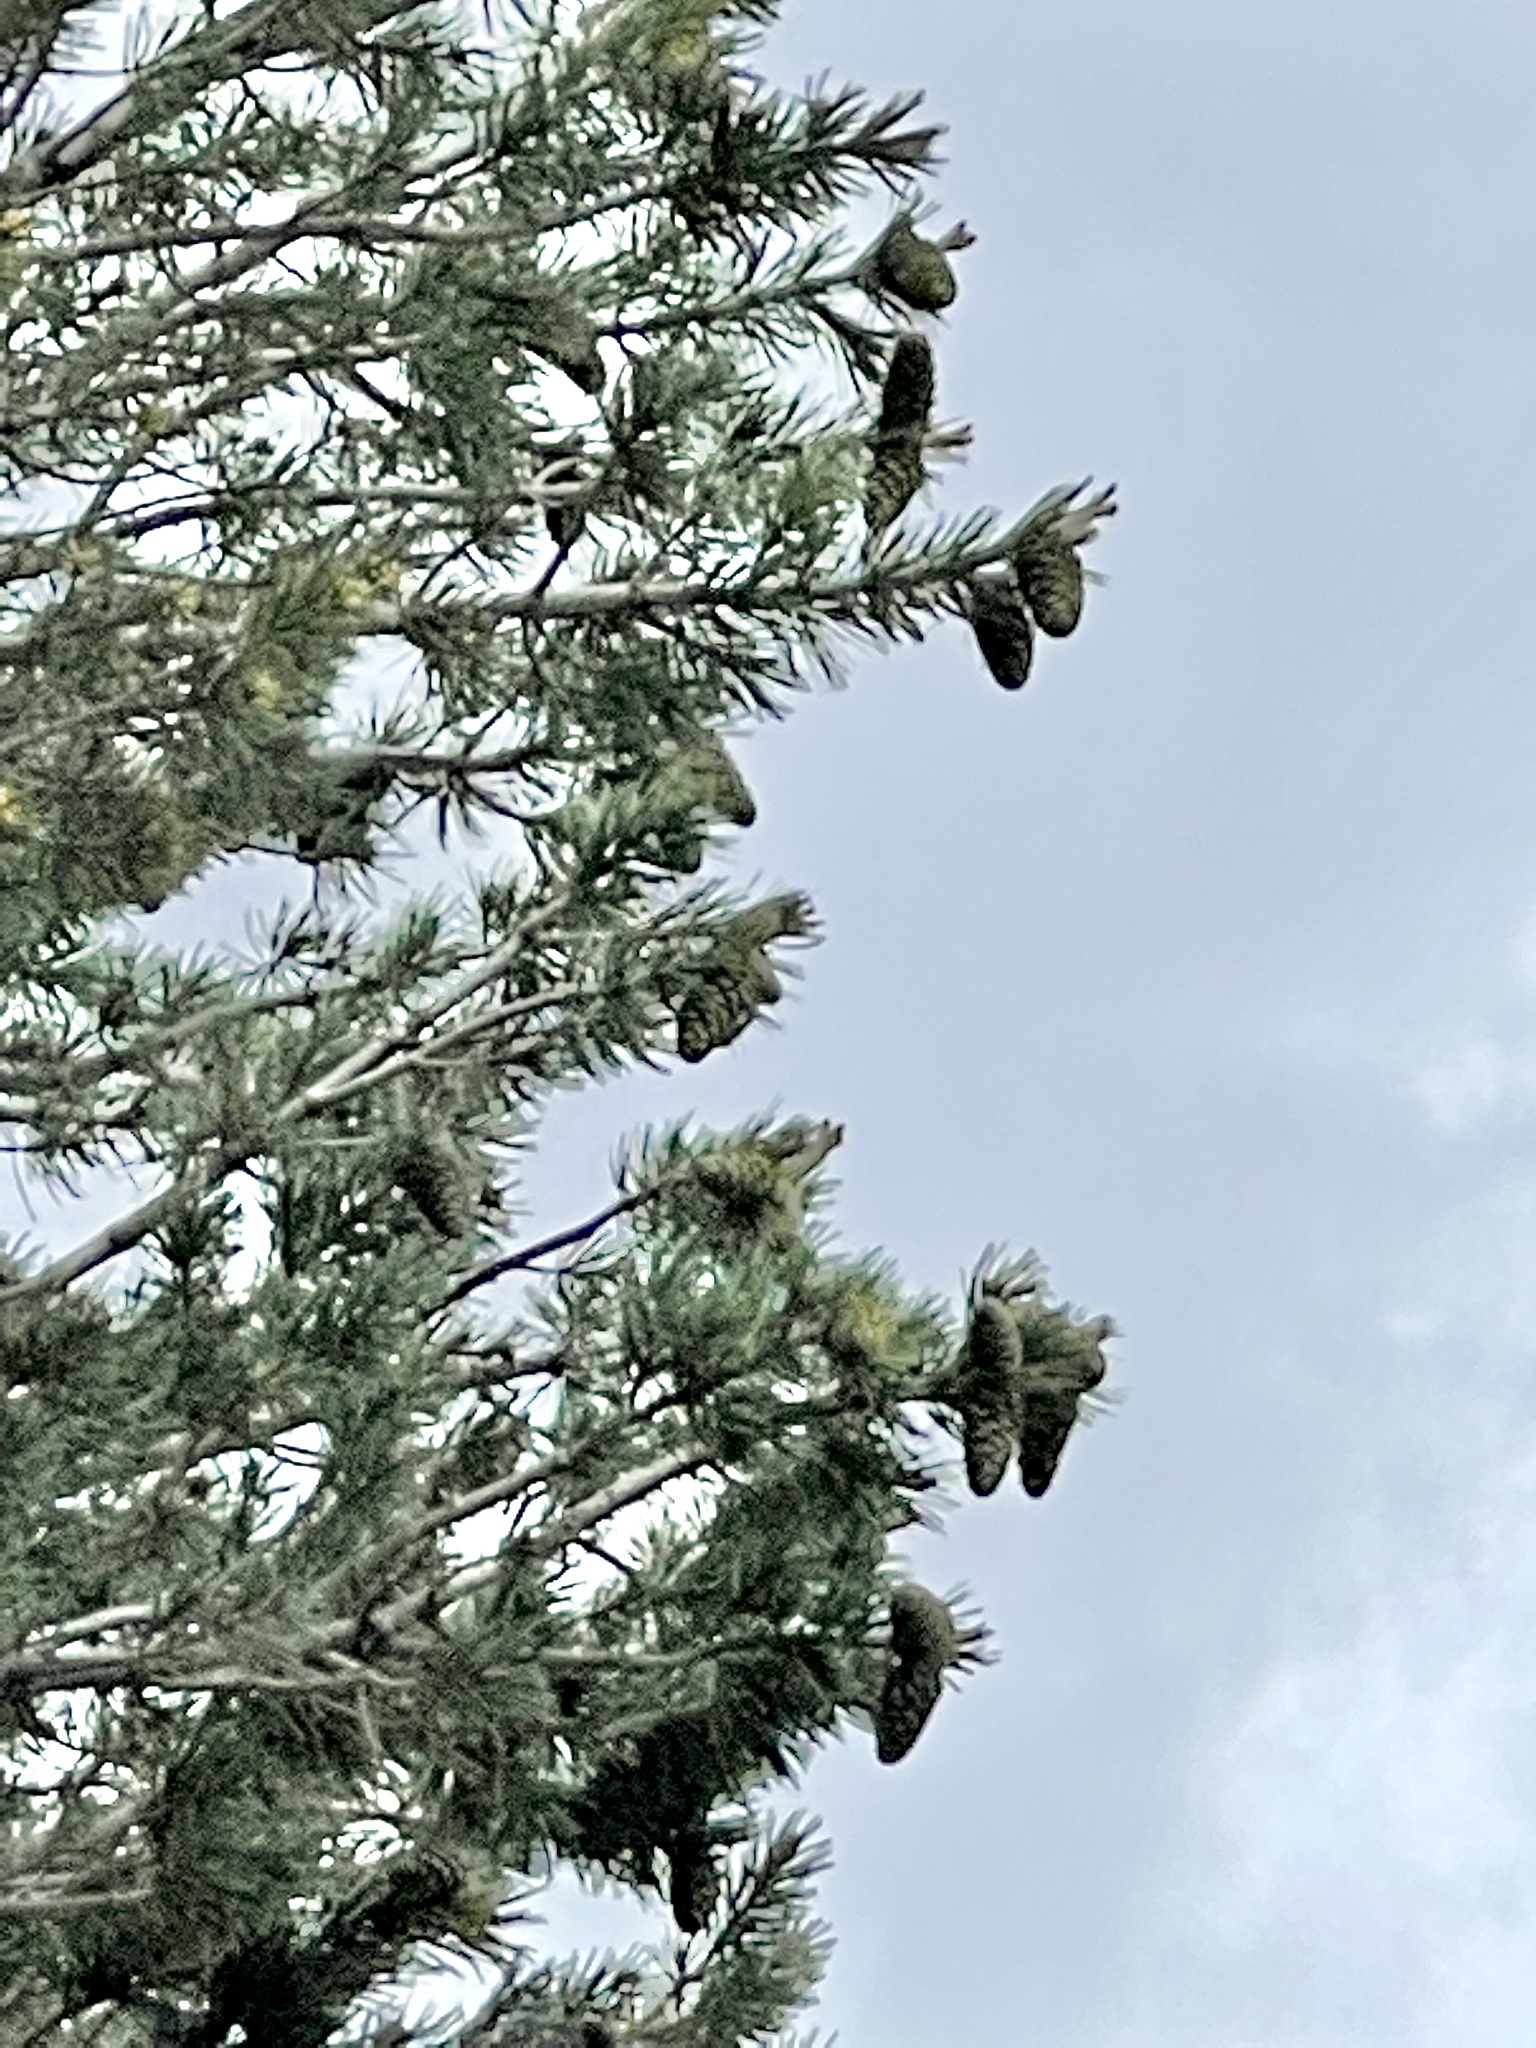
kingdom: Plantae
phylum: Tracheophyta
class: Pinopsida
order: Pinales
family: Pinaceae
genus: Pinus
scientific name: Pinus flexilis
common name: Limber pine
